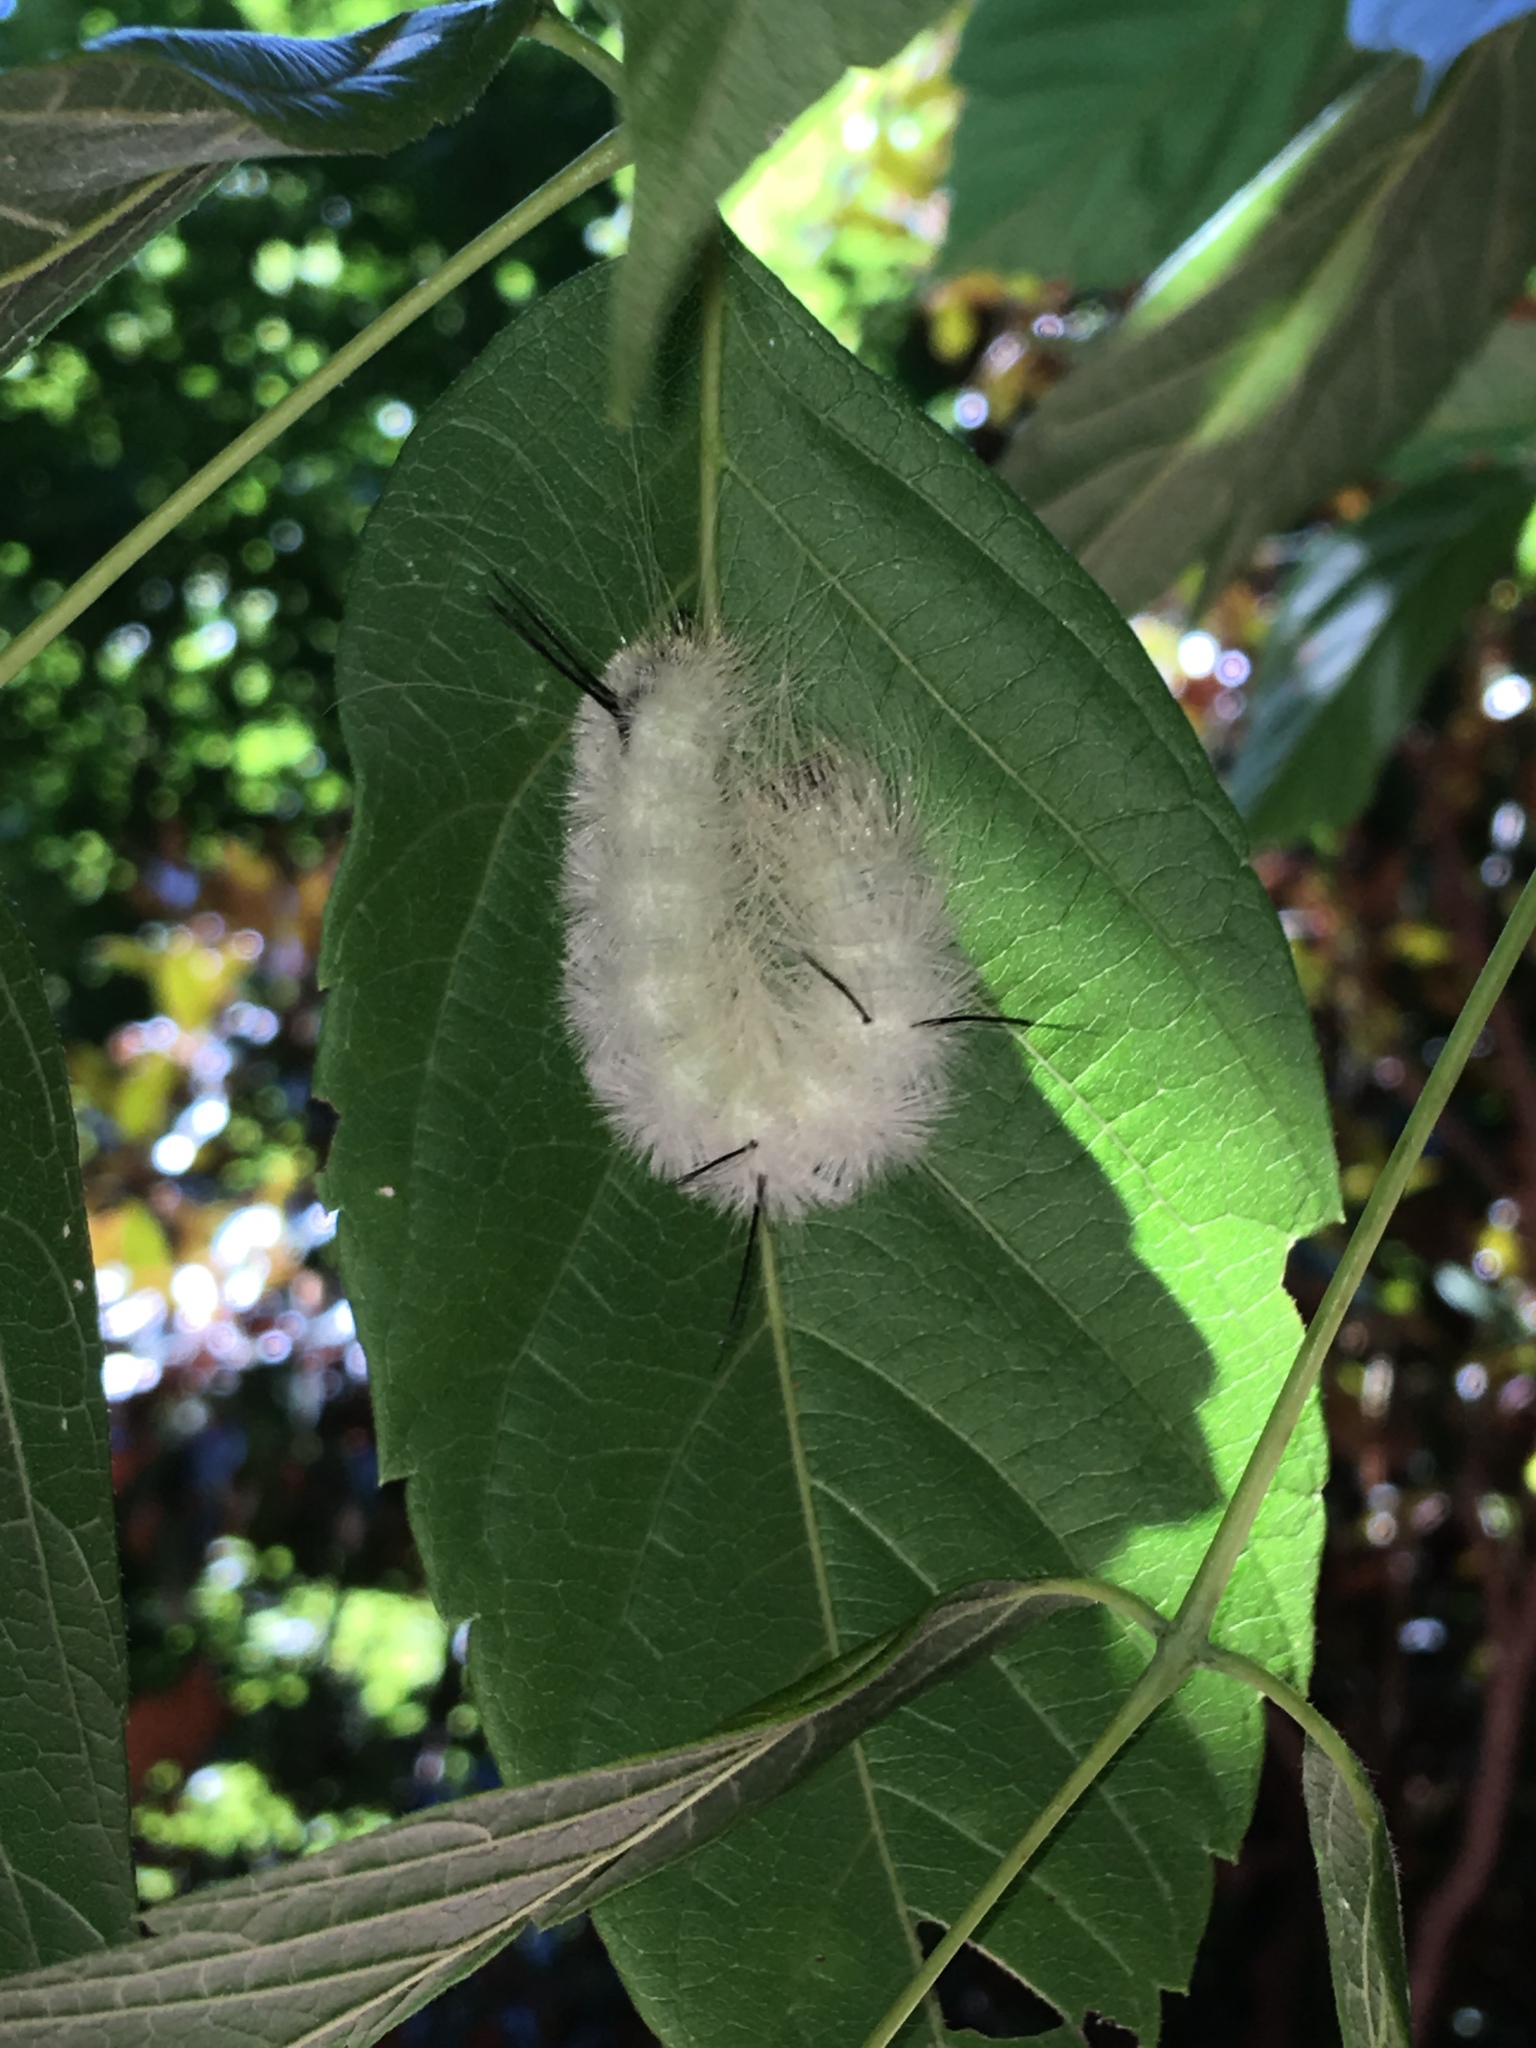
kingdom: Animalia
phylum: Arthropoda
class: Insecta
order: Lepidoptera
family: Noctuidae
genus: Acronicta
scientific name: Acronicta americana
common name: American dagger
